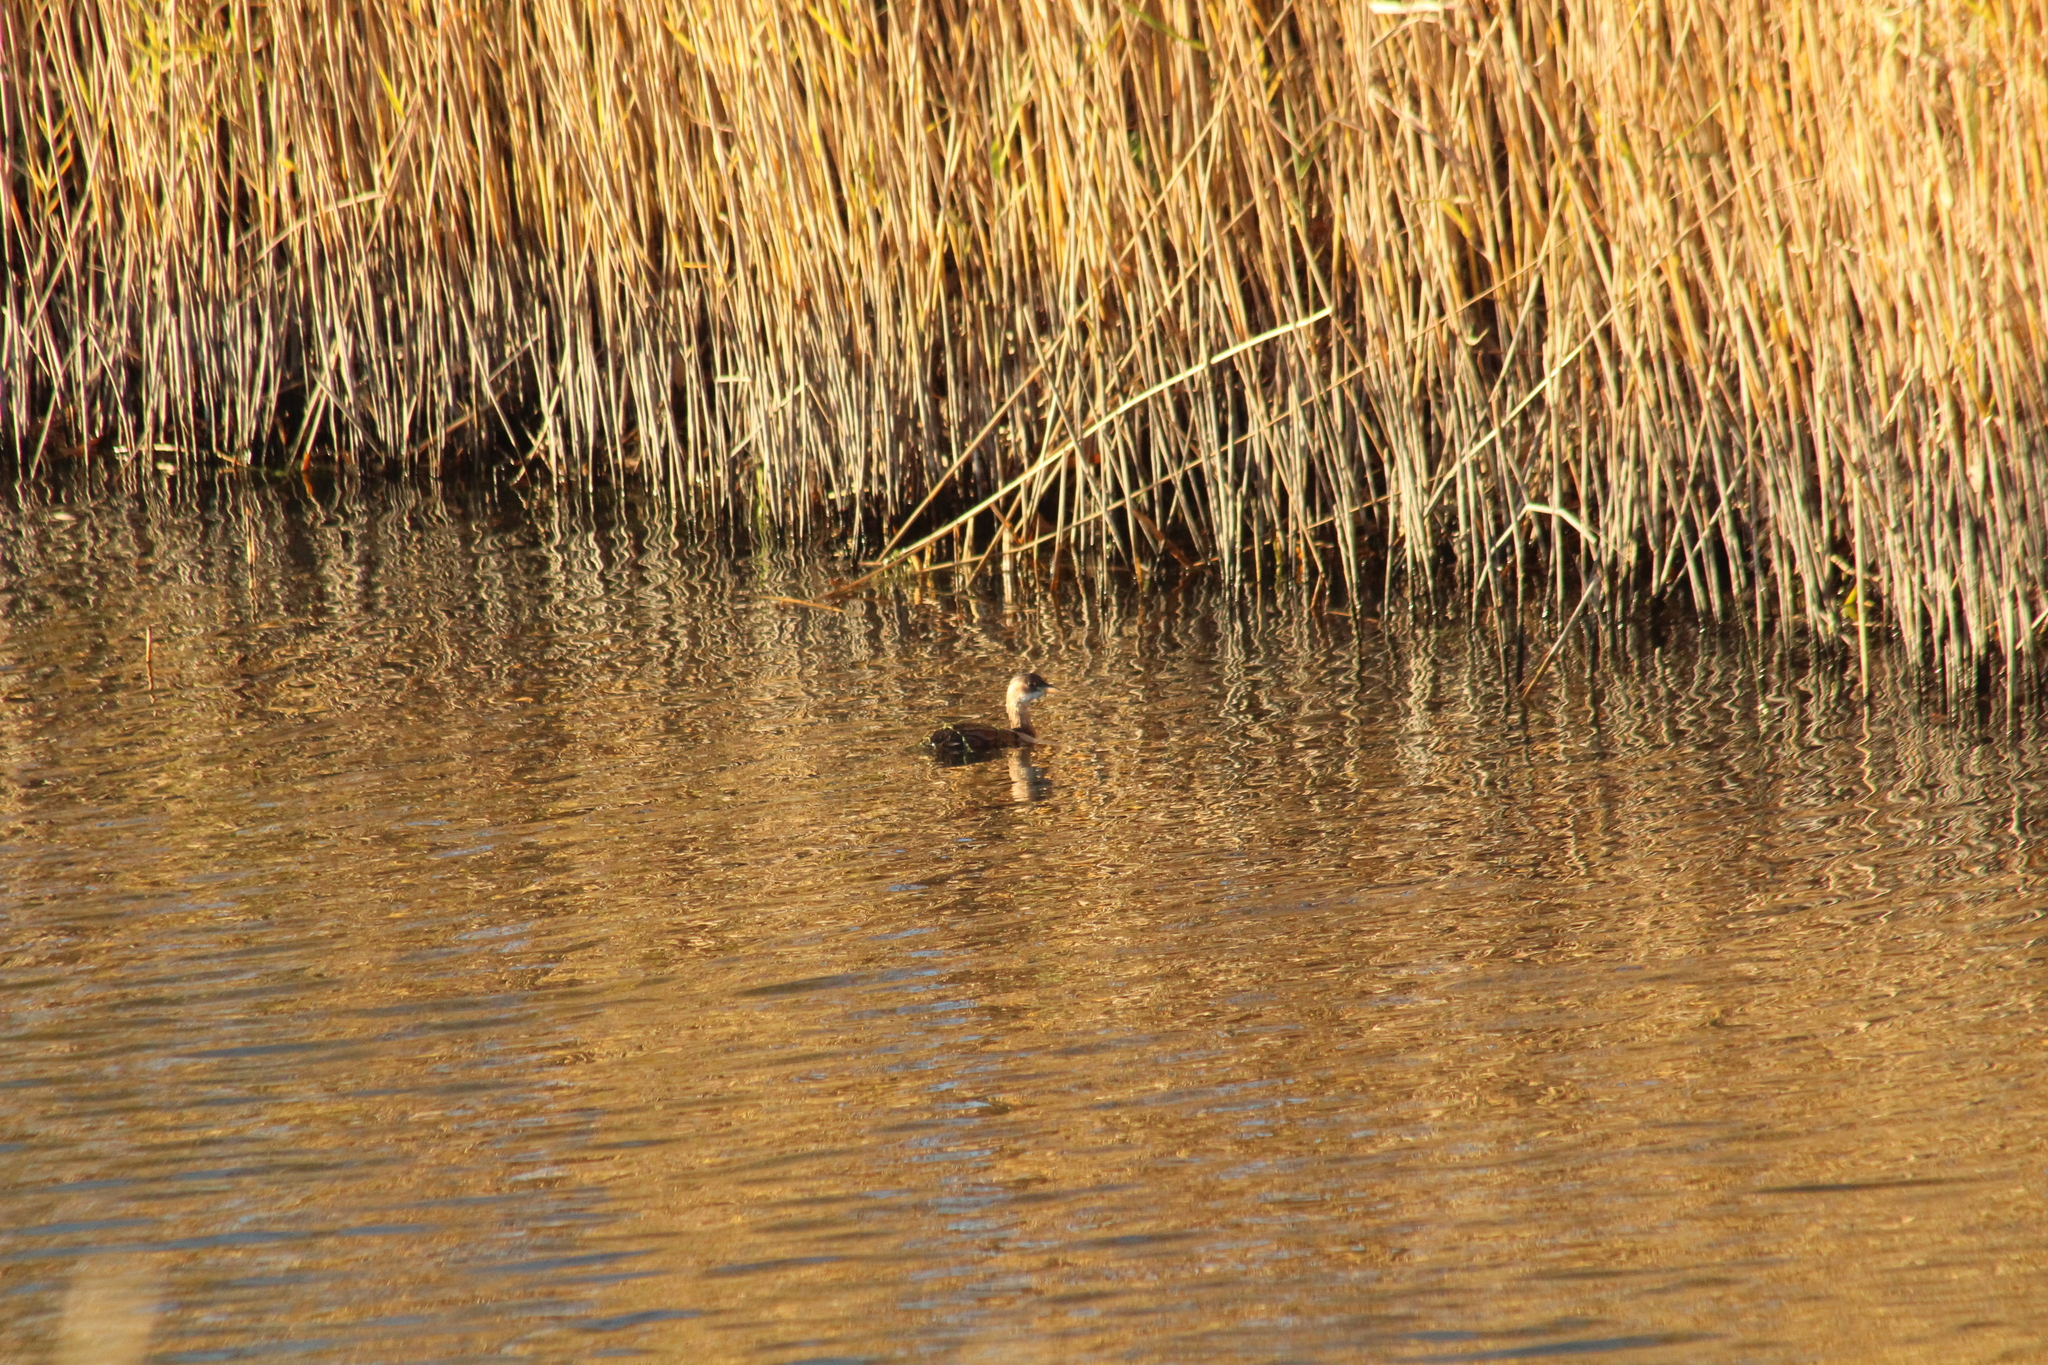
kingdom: Animalia
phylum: Chordata
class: Aves
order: Podicipediformes
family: Podicipedidae
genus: Tachybaptus
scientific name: Tachybaptus ruficollis
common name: Little grebe
